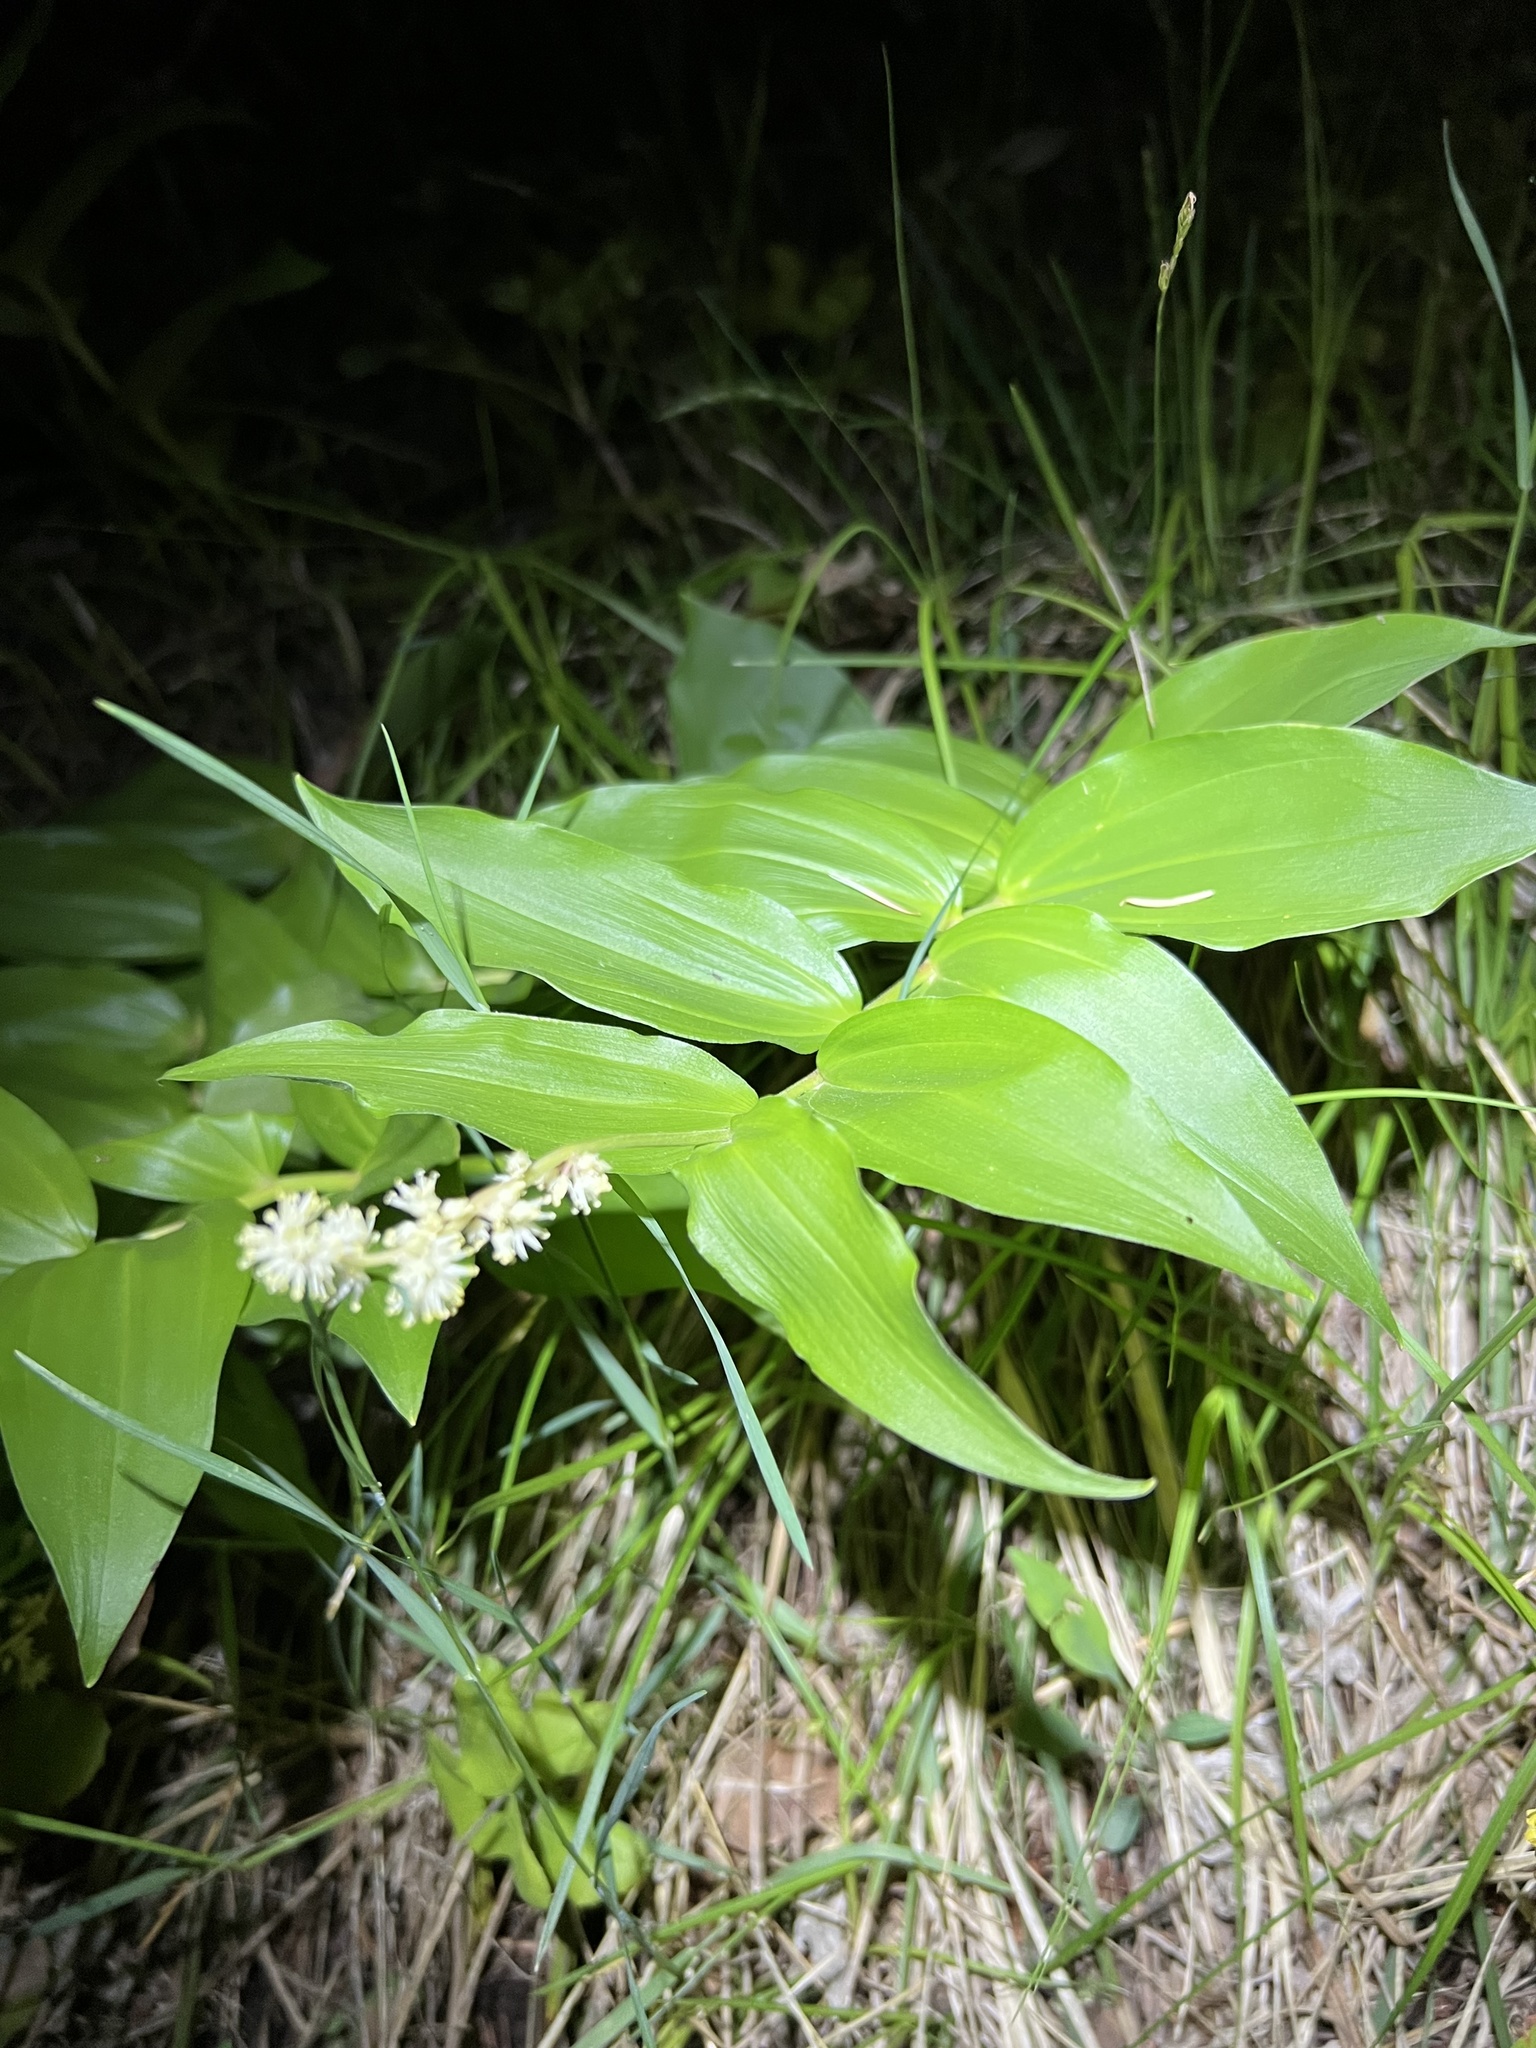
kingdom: Plantae
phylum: Tracheophyta
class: Liliopsida
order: Asparagales
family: Asparagaceae
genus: Maianthemum
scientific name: Maianthemum racemosum
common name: False spikenard
